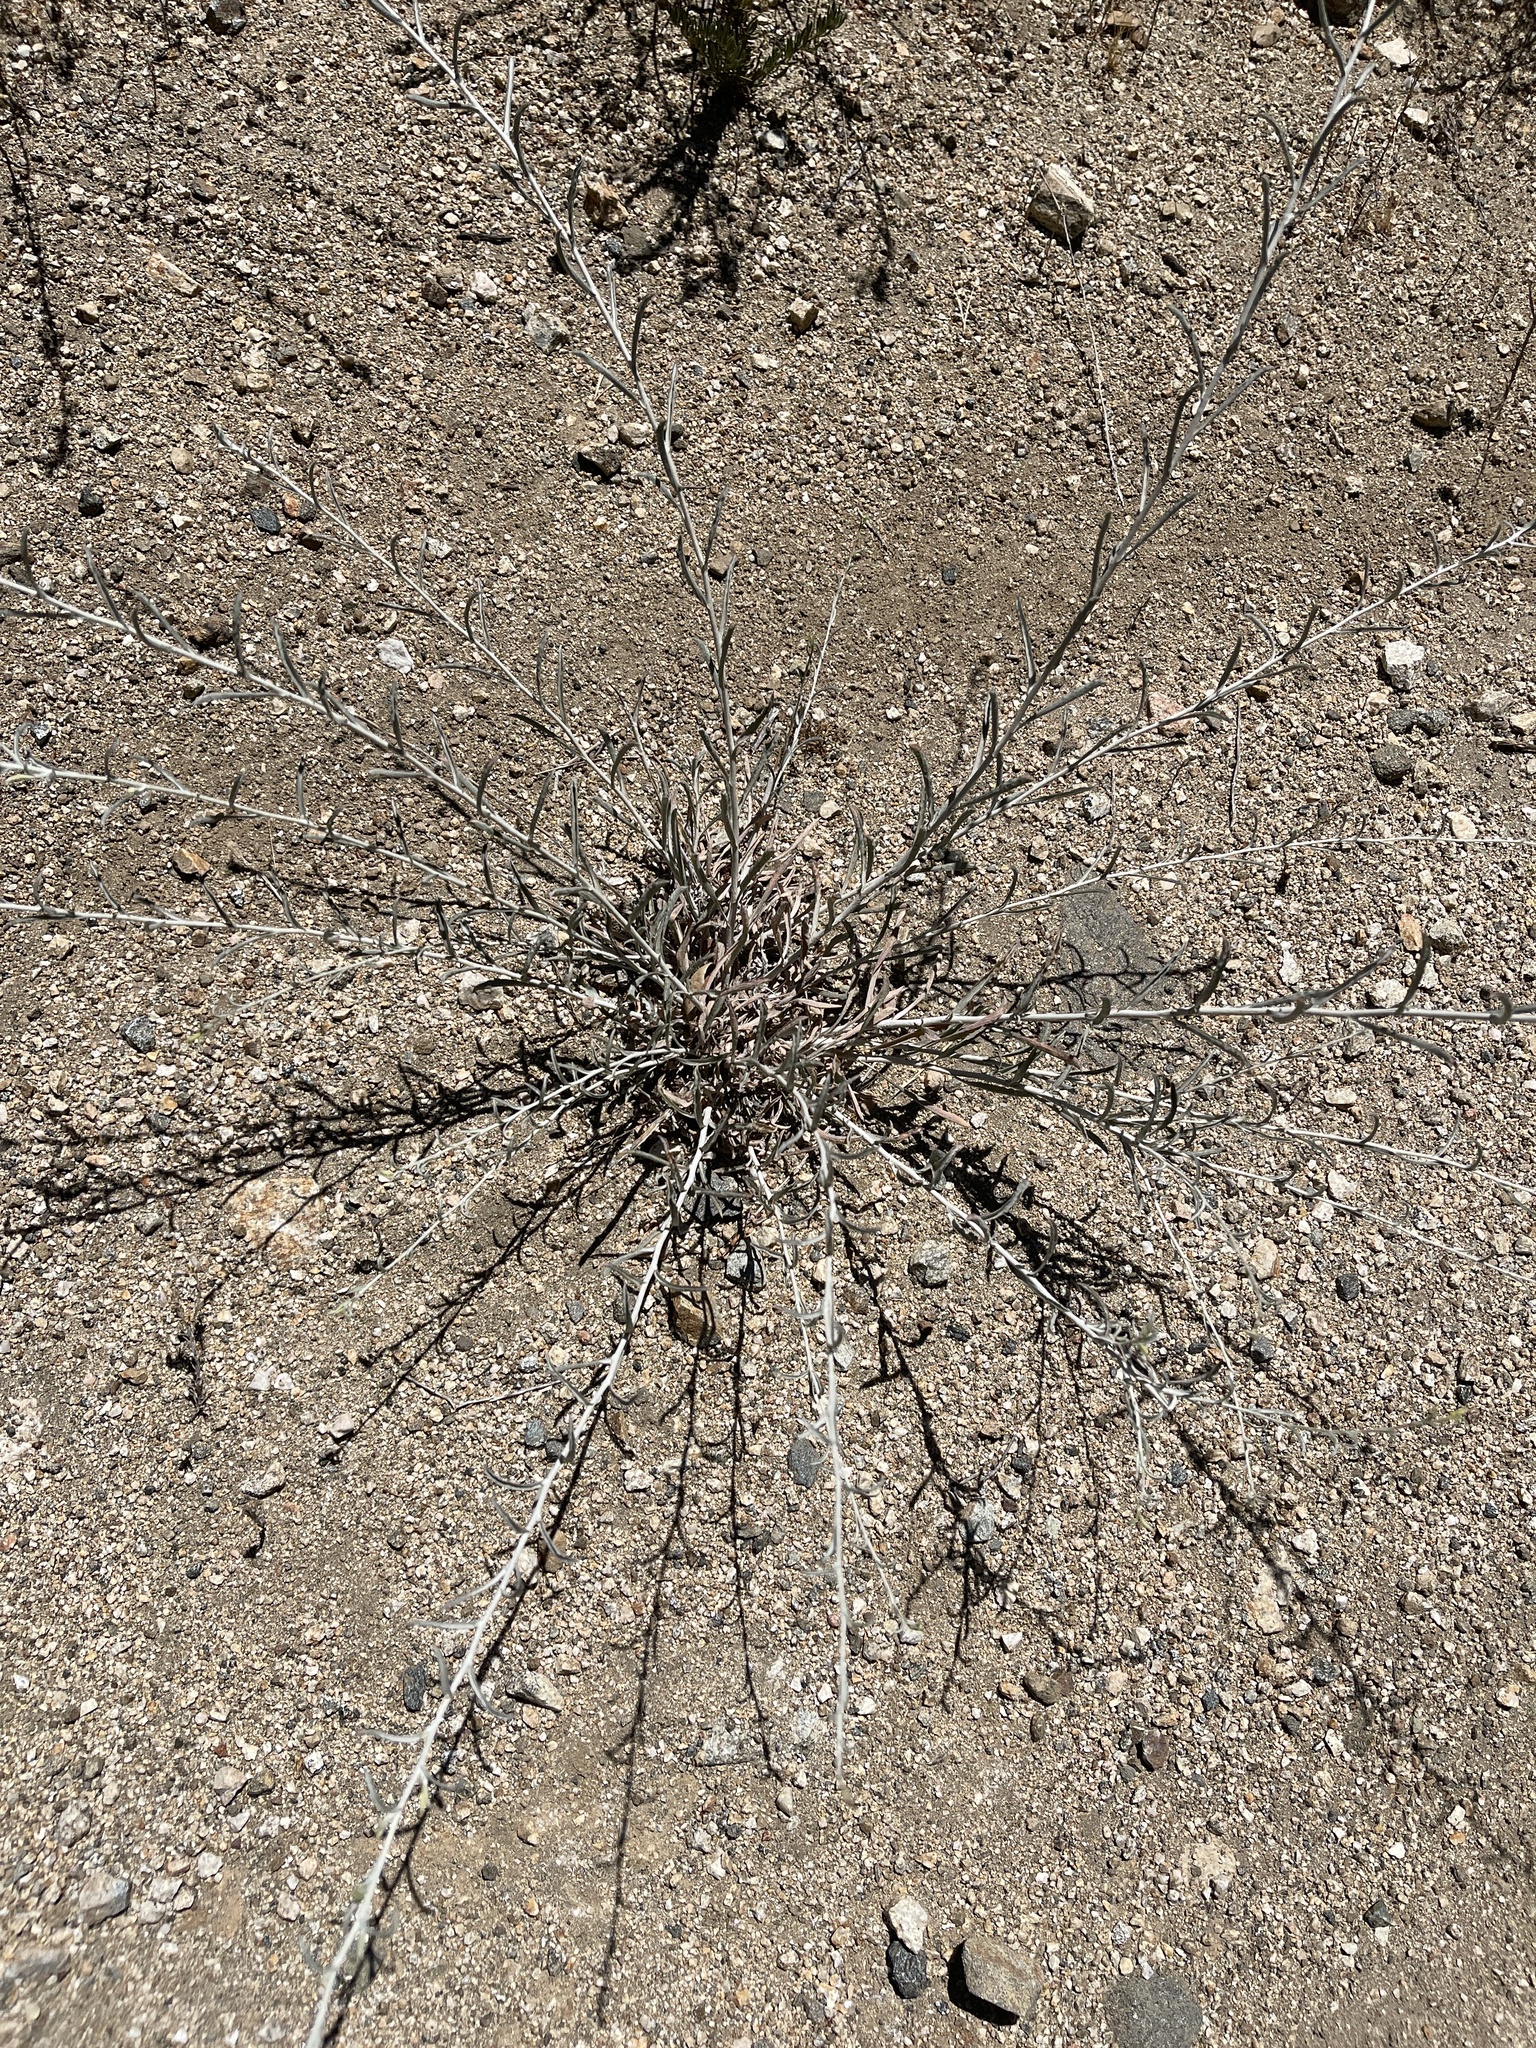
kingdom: Plantae
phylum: Tracheophyta
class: Magnoliopsida
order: Asterales
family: Asteraceae
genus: Corethrogyne
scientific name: Corethrogyne filaginifolia
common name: Sand-aster
